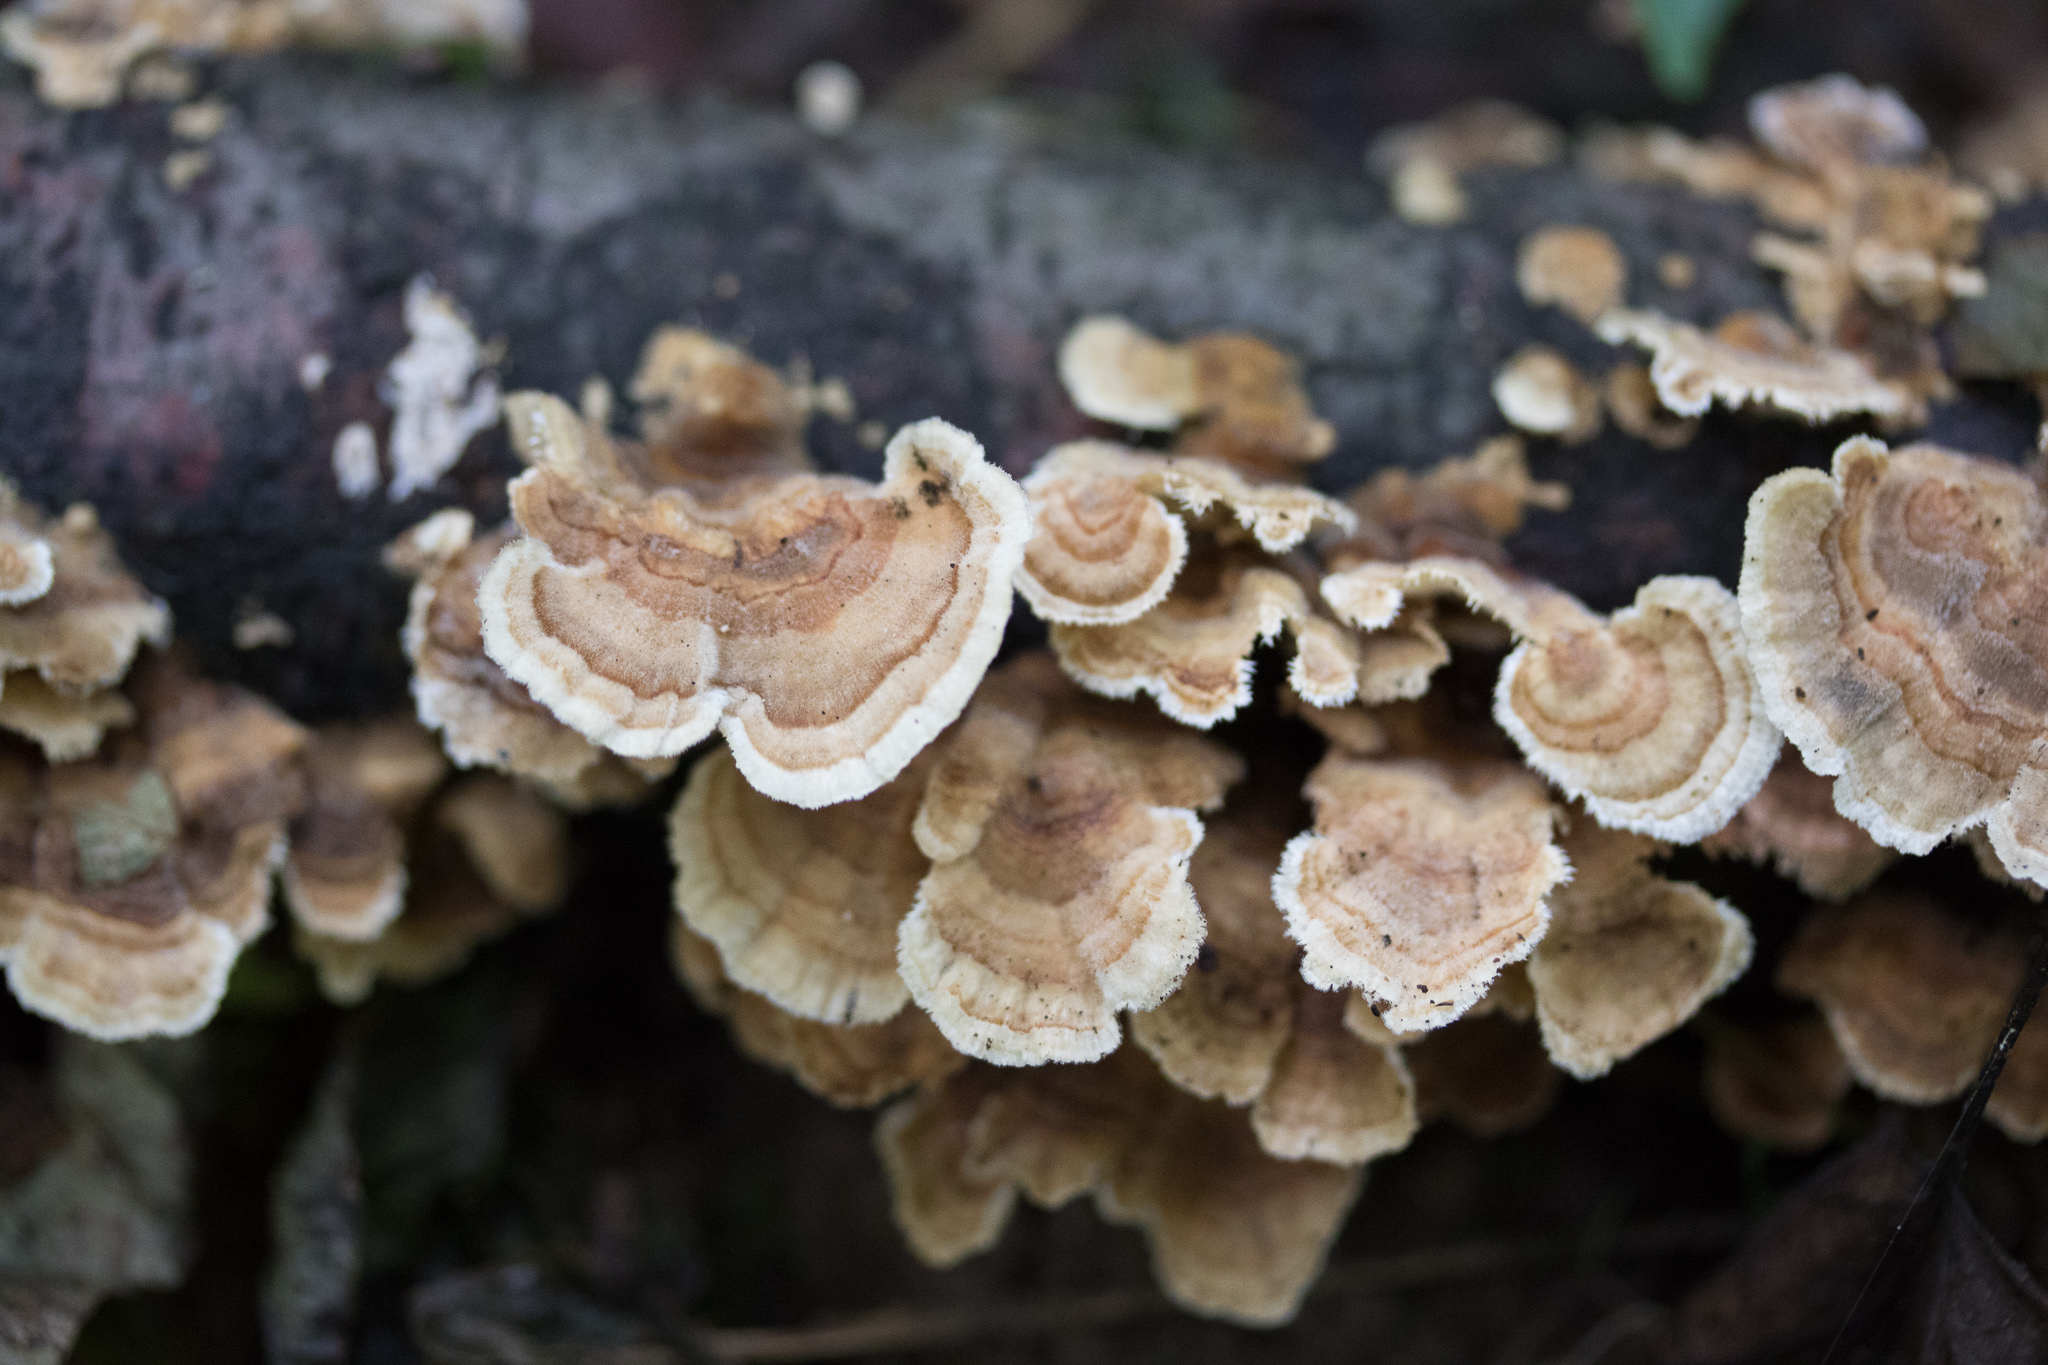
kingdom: Fungi
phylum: Basidiomycota
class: Agaricomycetes
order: Polyporales
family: Polyporaceae
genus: Trametes
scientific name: Trametes ochracea
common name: Ochre bracket
